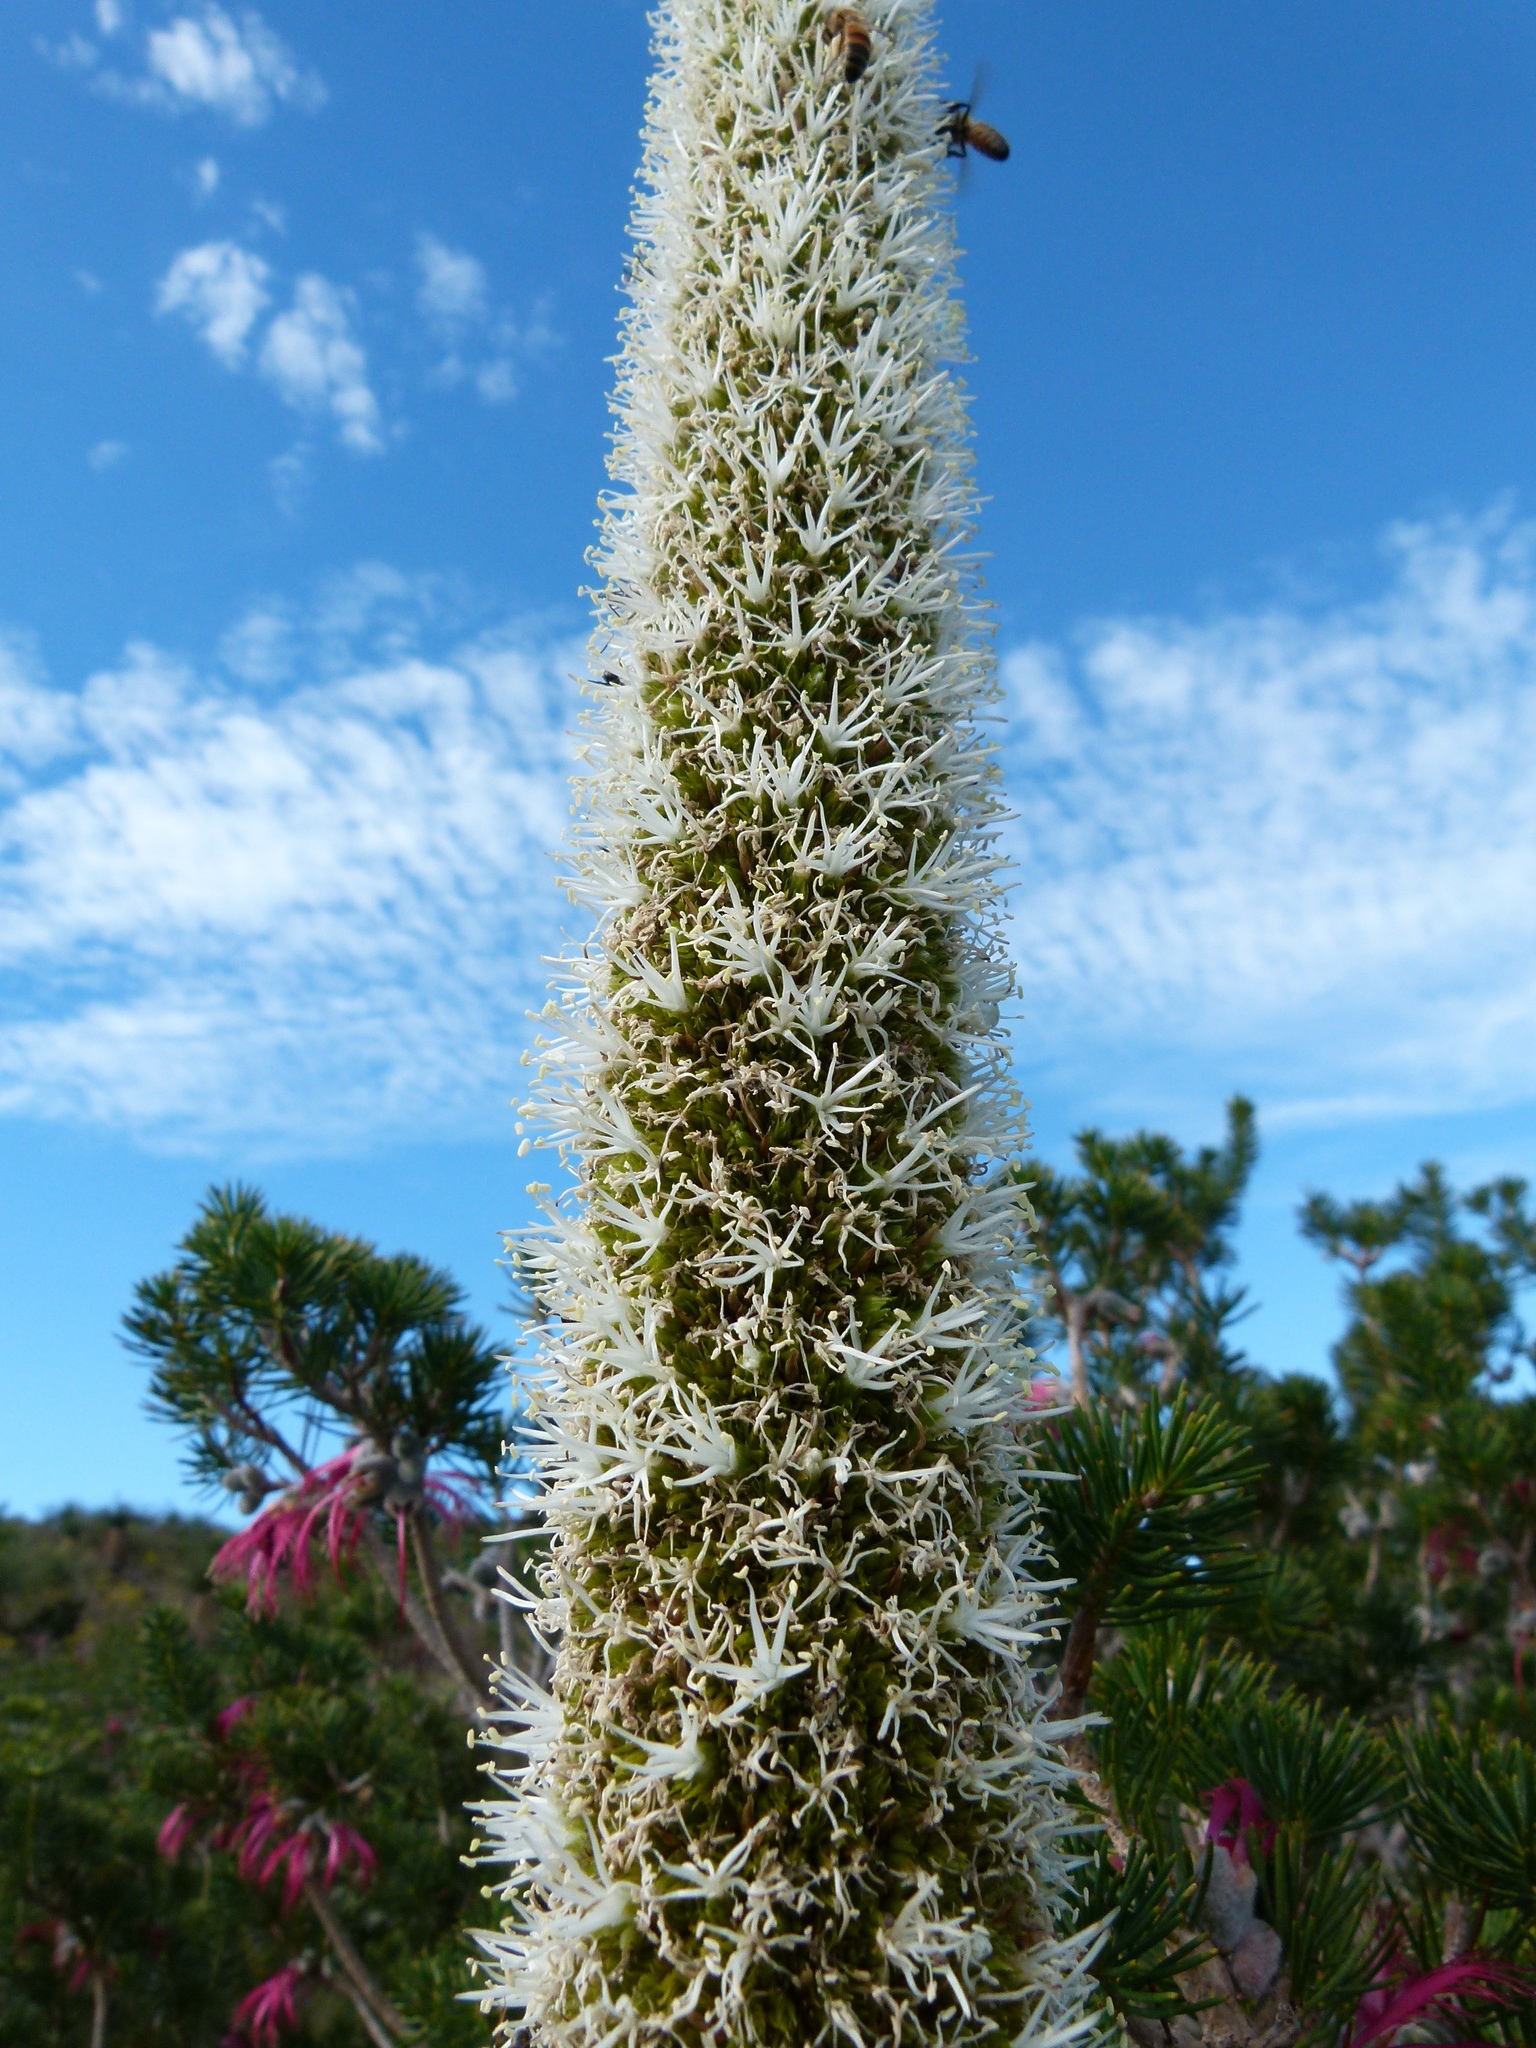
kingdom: Plantae
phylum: Tracheophyta
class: Liliopsida
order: Asparagales
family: Asphodelaceae
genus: Xanthorrhoea
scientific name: Xanthorrhoea preissii
